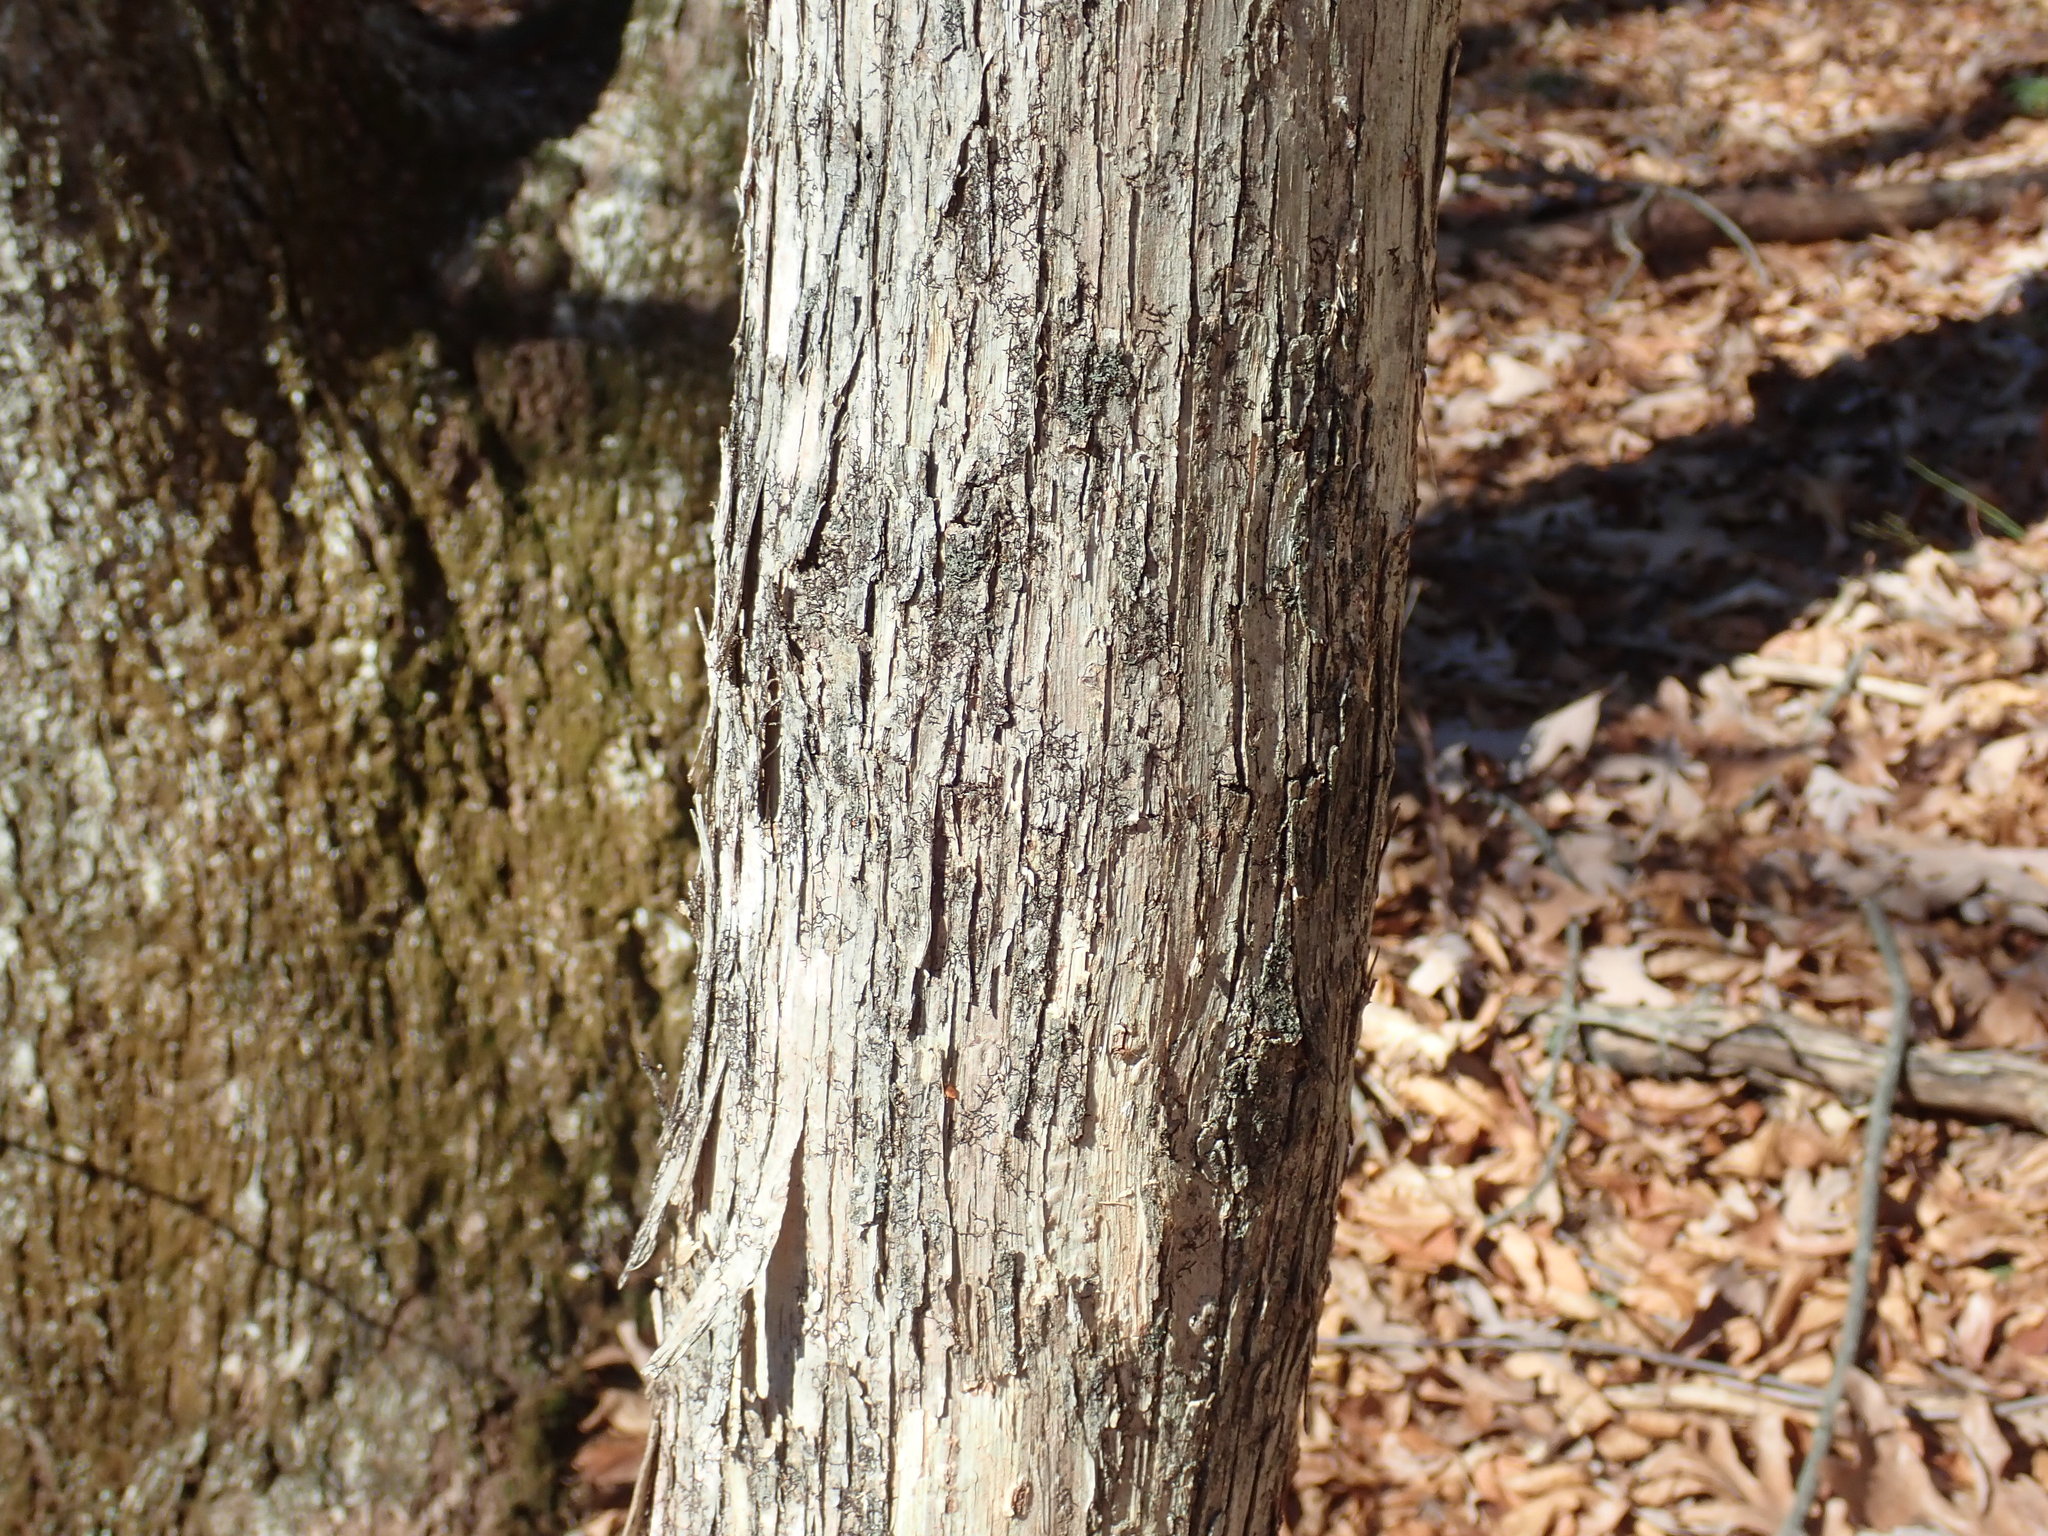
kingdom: Plantae
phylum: Tracheophyta
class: Magnoliopsida
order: Fagales
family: Betulaceae
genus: Ostrya
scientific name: Ostrya virginiana
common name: Ironwood
